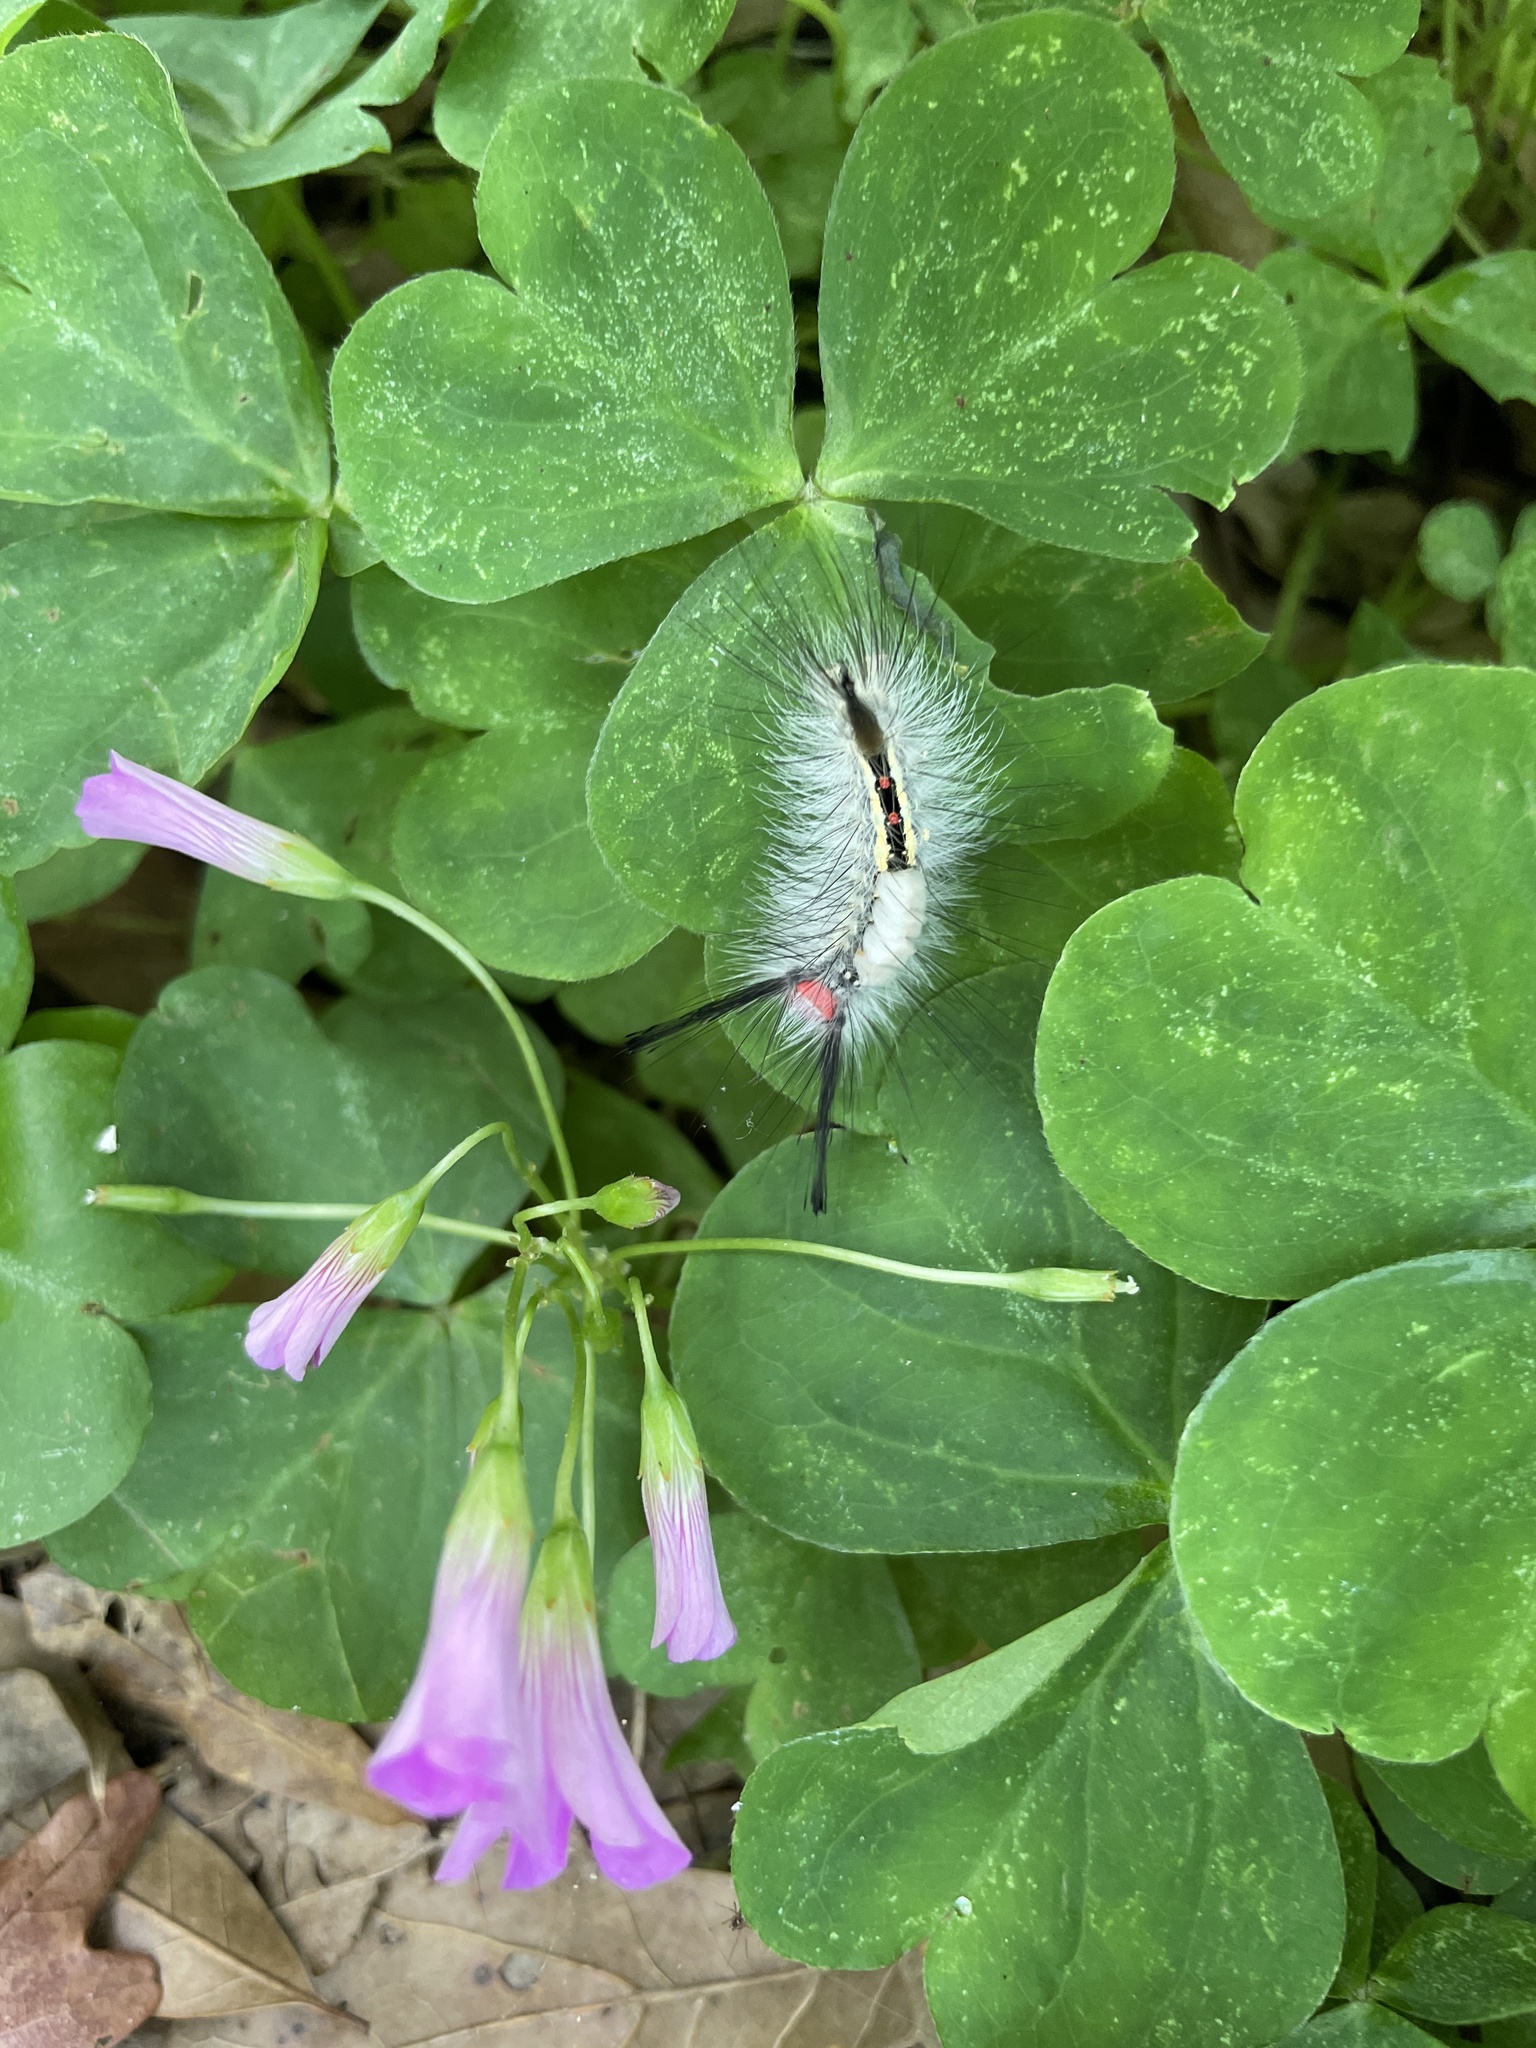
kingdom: Animalia
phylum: Arthropoda
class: Insecta
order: Lepidoptera
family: Erebidae
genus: Orgyia
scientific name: Orgyia leucostigma
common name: White-marked tussock moth
